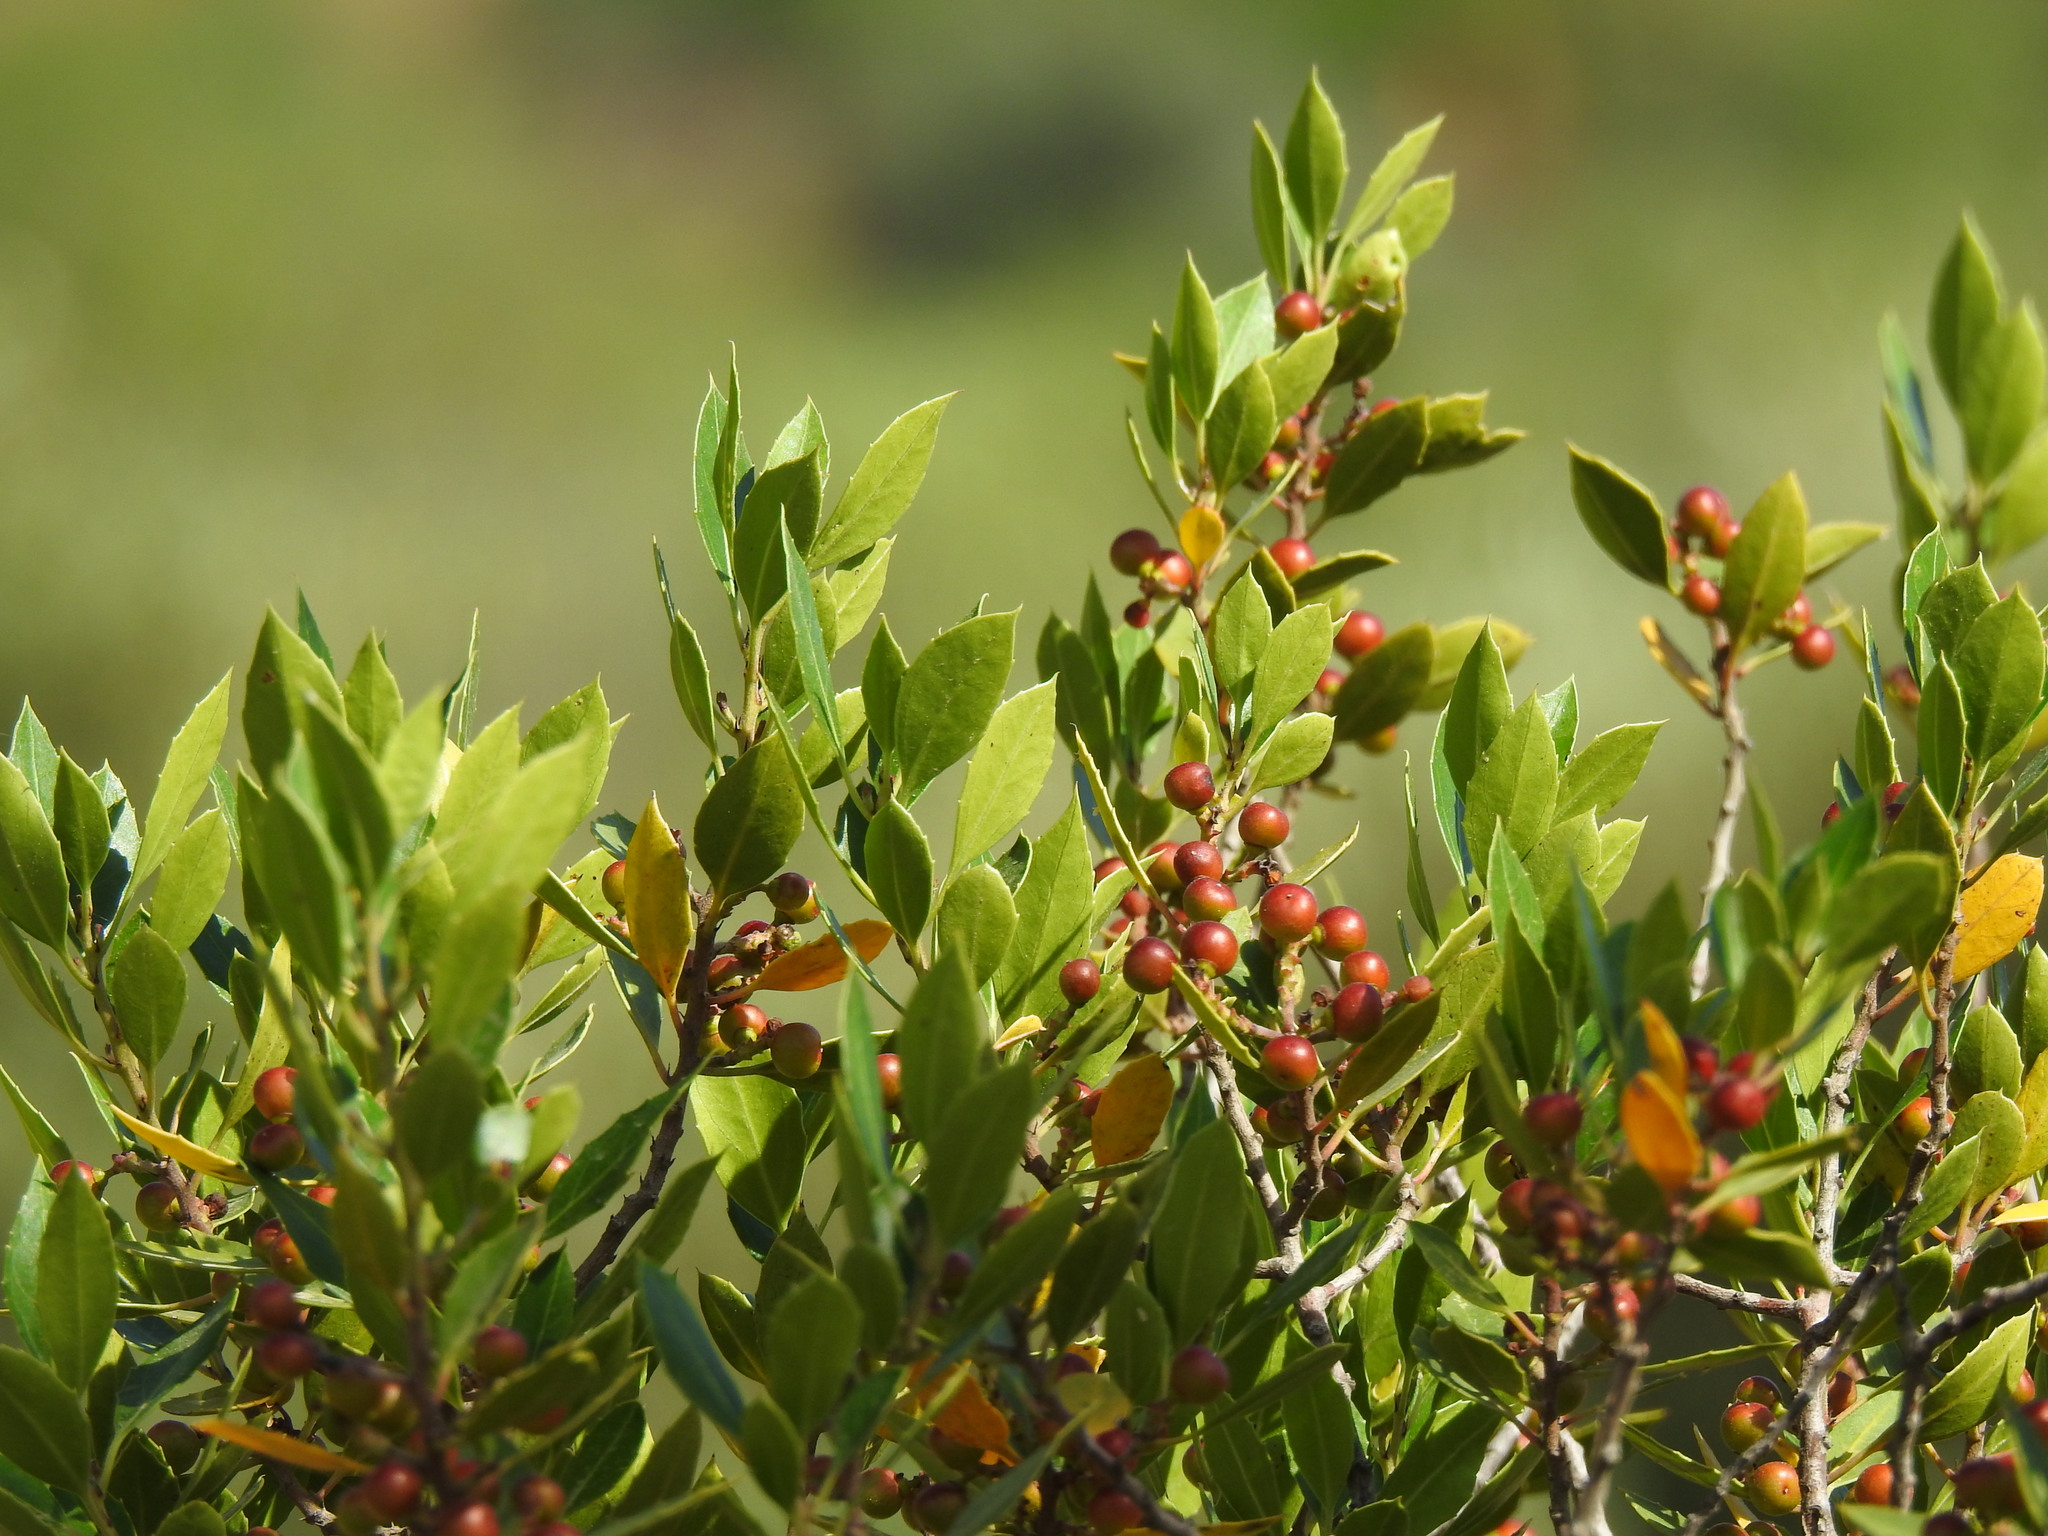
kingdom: Plantae
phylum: Tracheophyta
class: Magnoliopsida
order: Rosales
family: Rhamnaceae
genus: Rhamnus
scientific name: Rhamnus alaternus
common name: Mediterranean buckthorn
